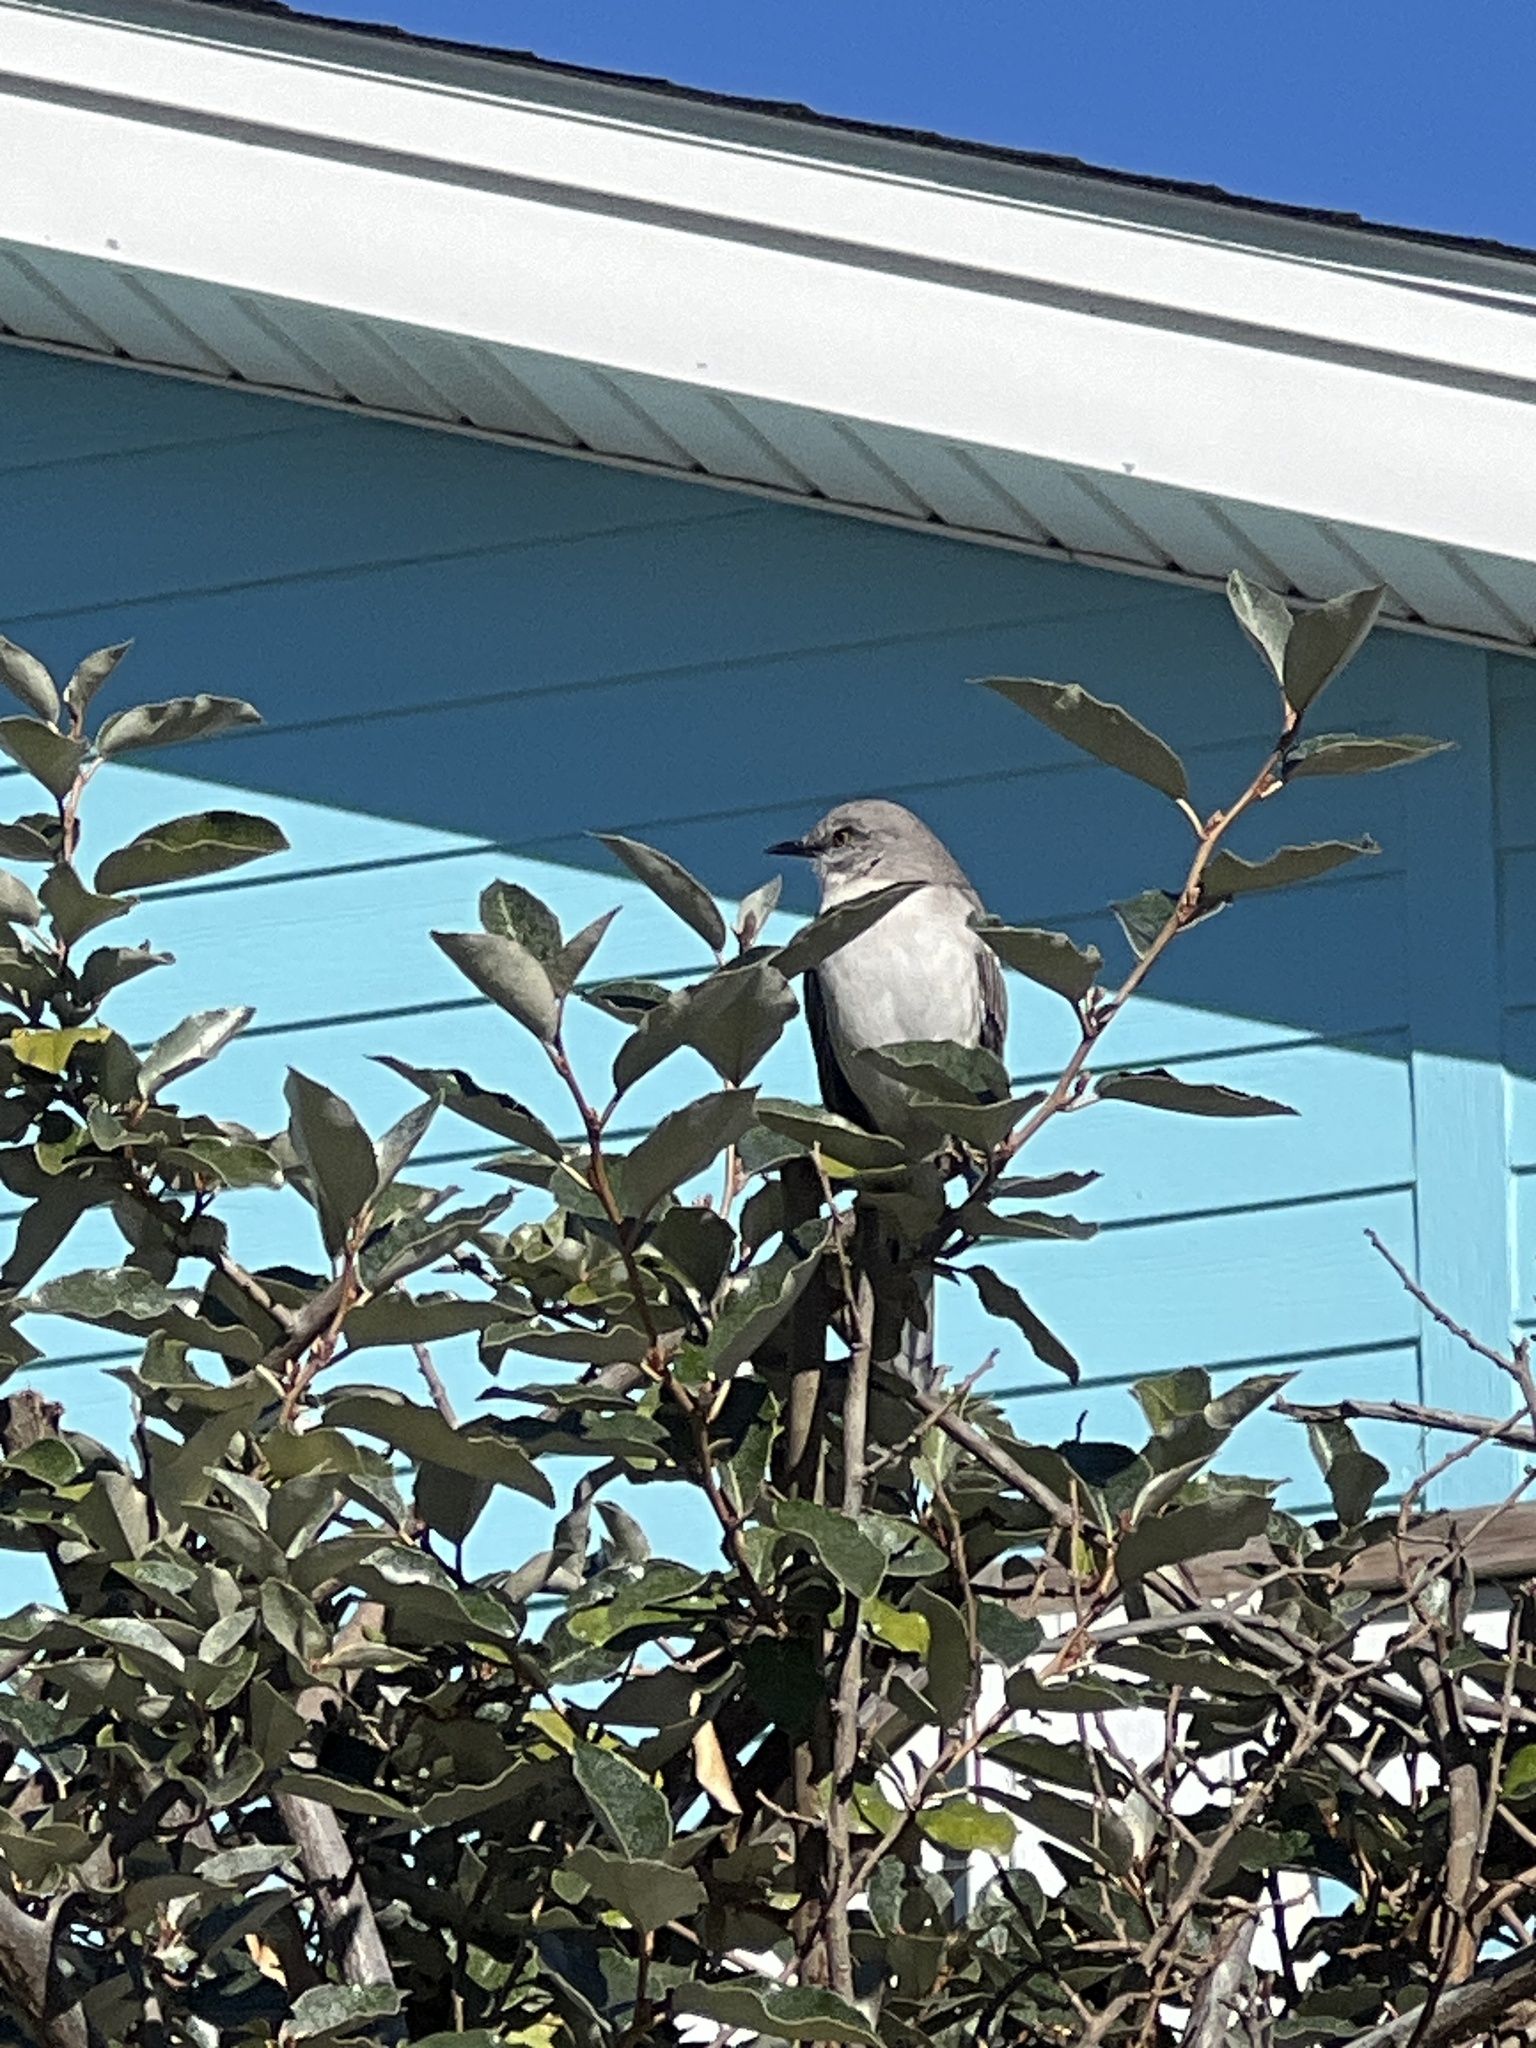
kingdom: Animalia
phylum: Chordata
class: Aves
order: Passeriformes
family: Mimidae
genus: Mimus
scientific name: Mimus polyglottos
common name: Northern mockingbird
